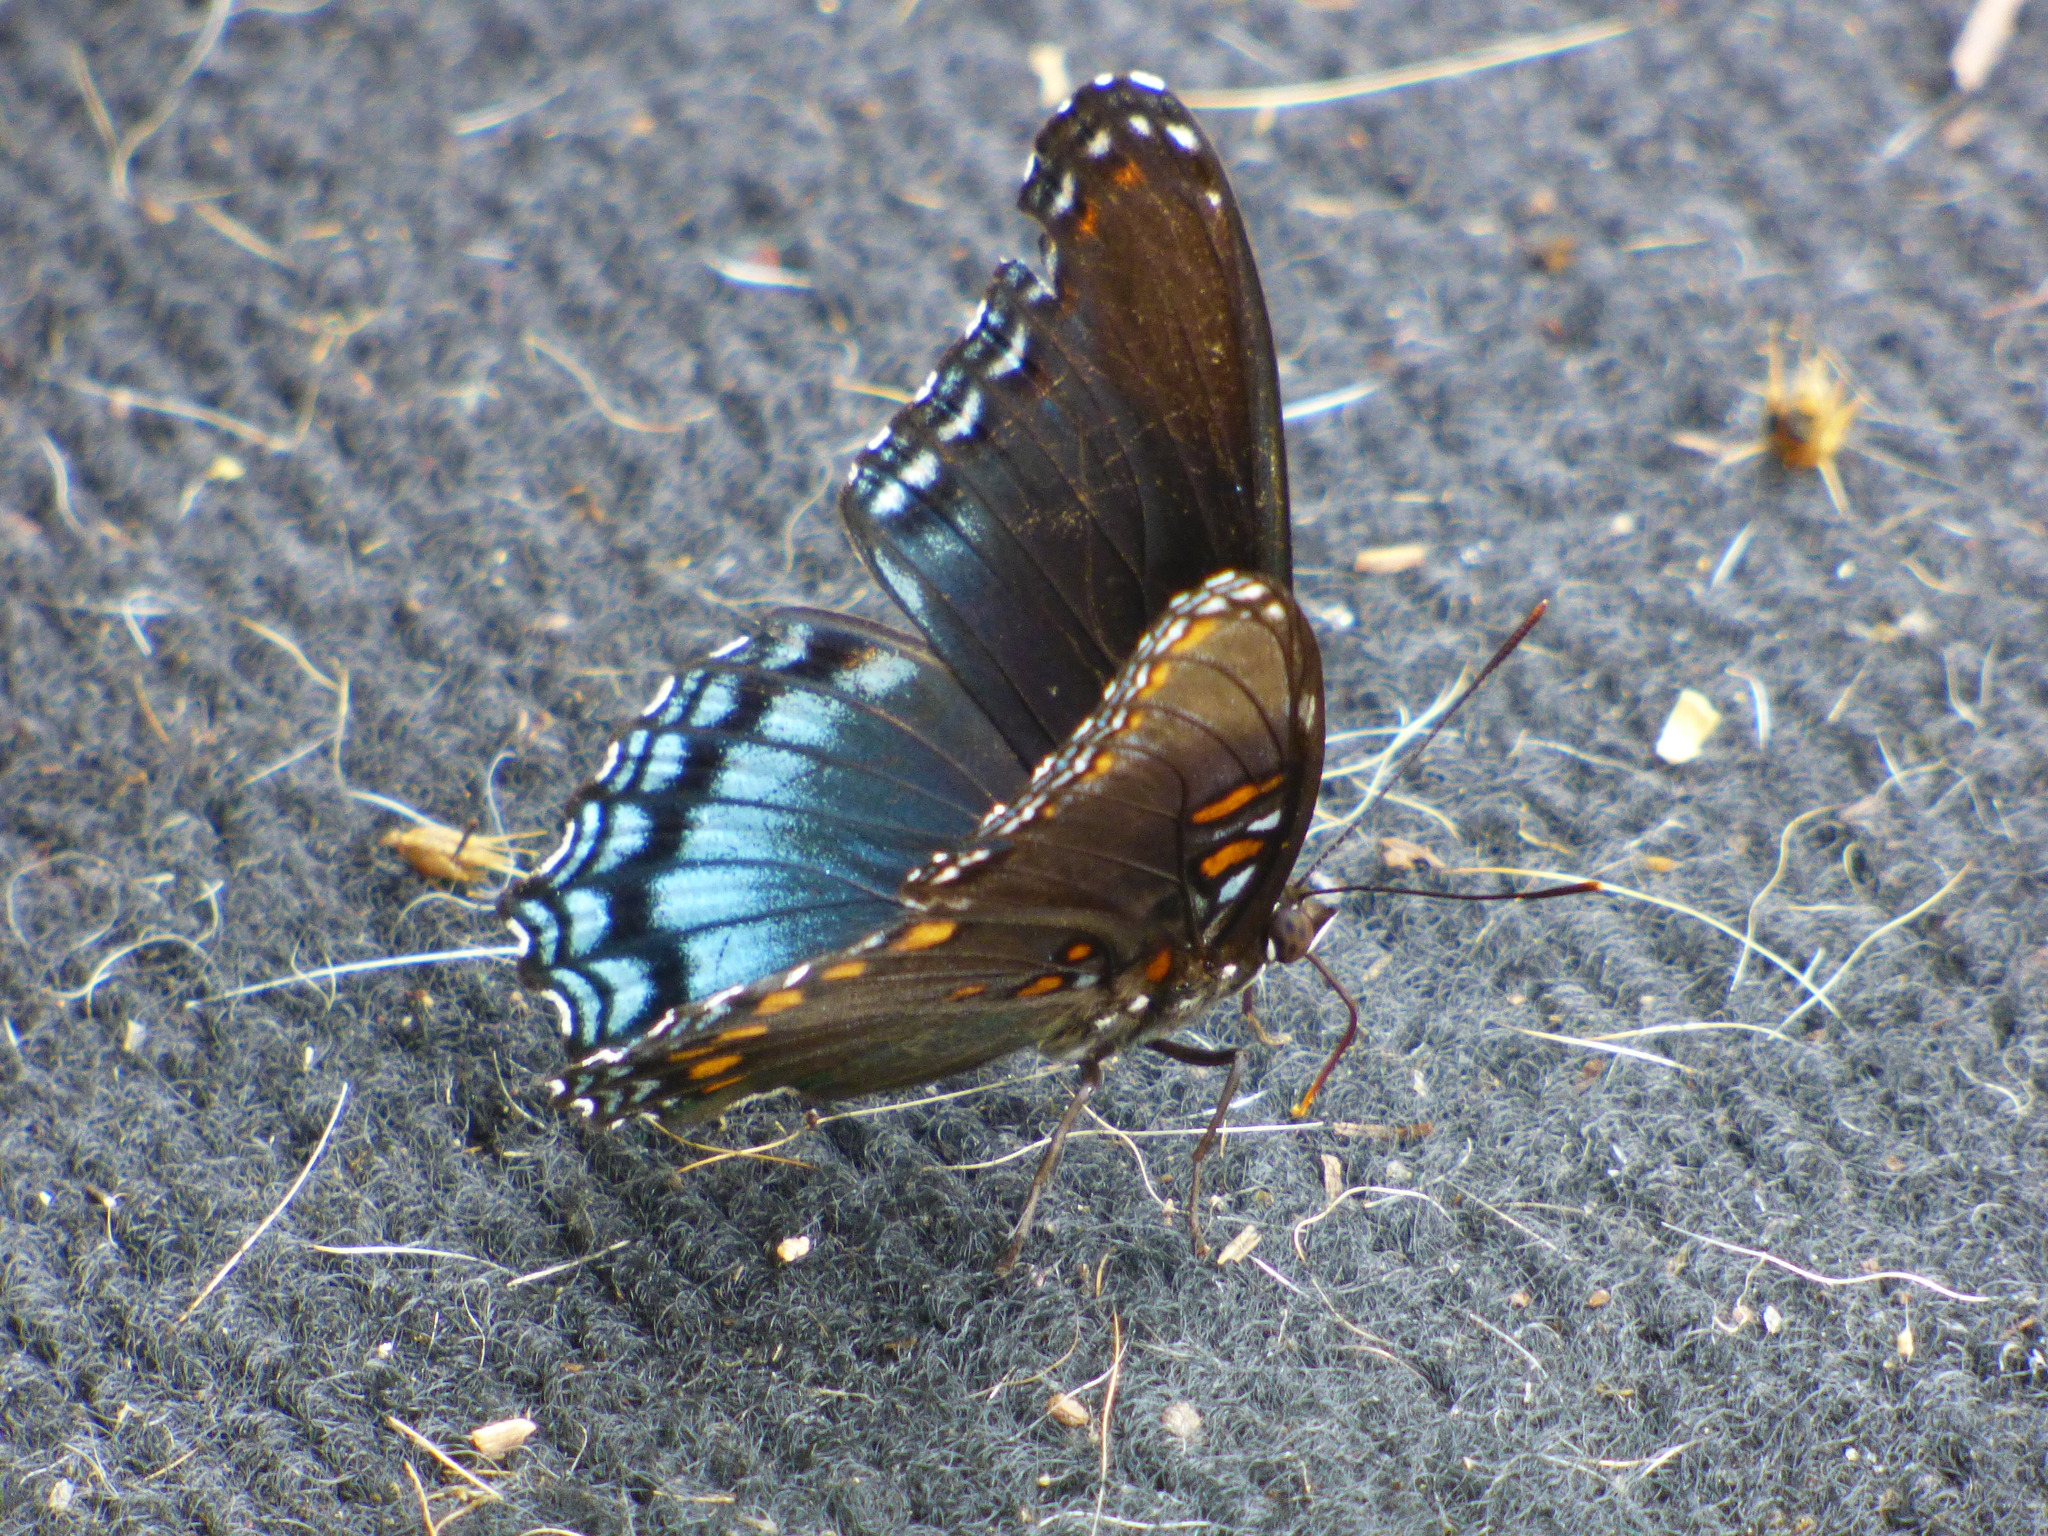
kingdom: Animalia
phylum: Arthropoda
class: Insecta
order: Lepidoptera
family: Nymphalidae
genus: Limenitis
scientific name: Limenitis astyanax
